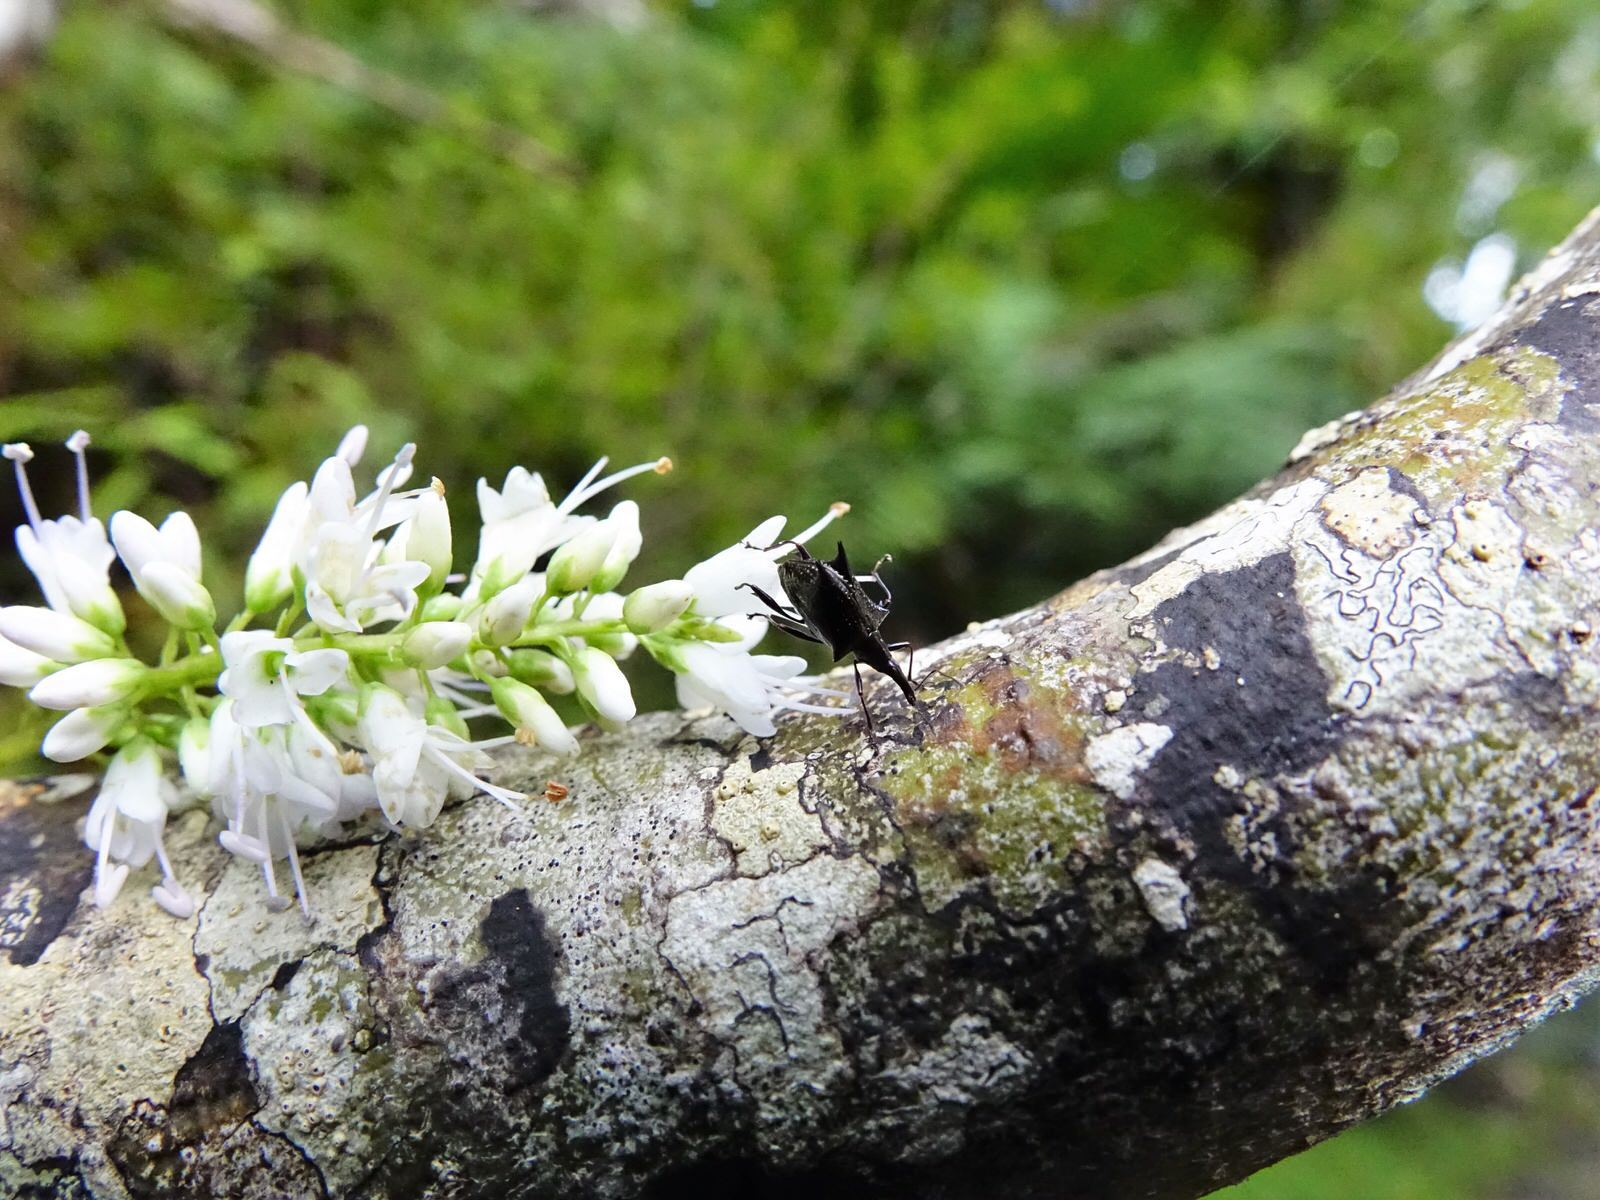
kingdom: Animalia
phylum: Arthropoda
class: Insecta
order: Coleoptera
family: Curculionidae
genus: Scolopterus
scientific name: Scolopterus aequus
